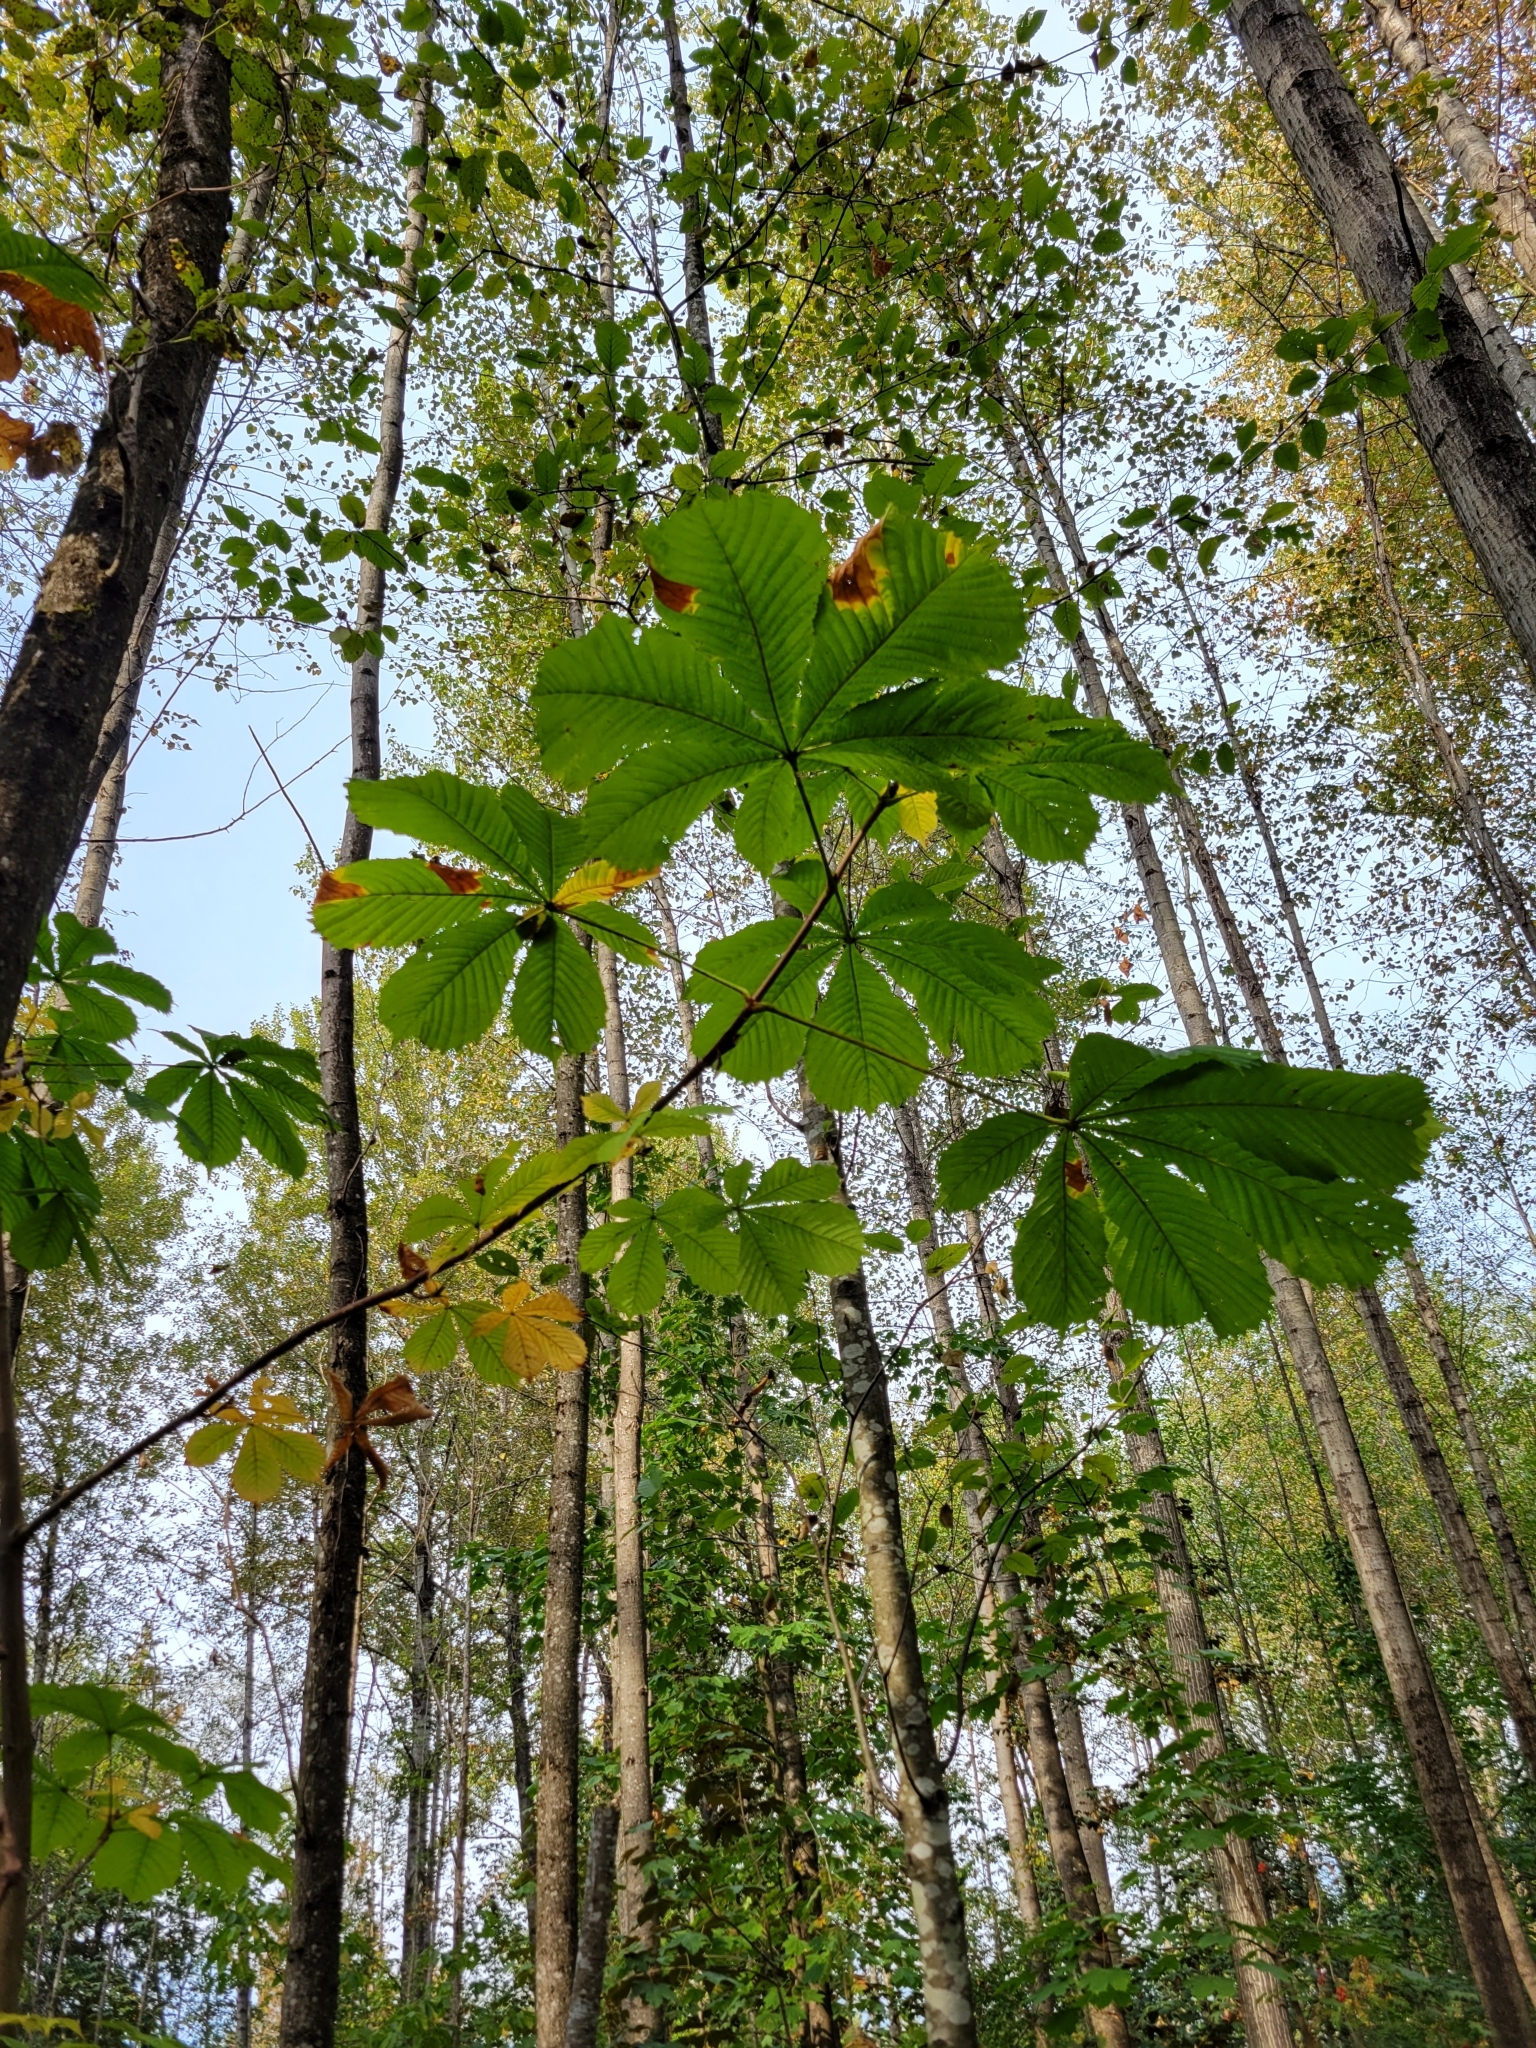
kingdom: Plantae
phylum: Tracheophyta
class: Magnoliopsida
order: Sapindales
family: Sapindaceae
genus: Aesculus
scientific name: Aesculus hippocastanum
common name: Horse-chestnut
